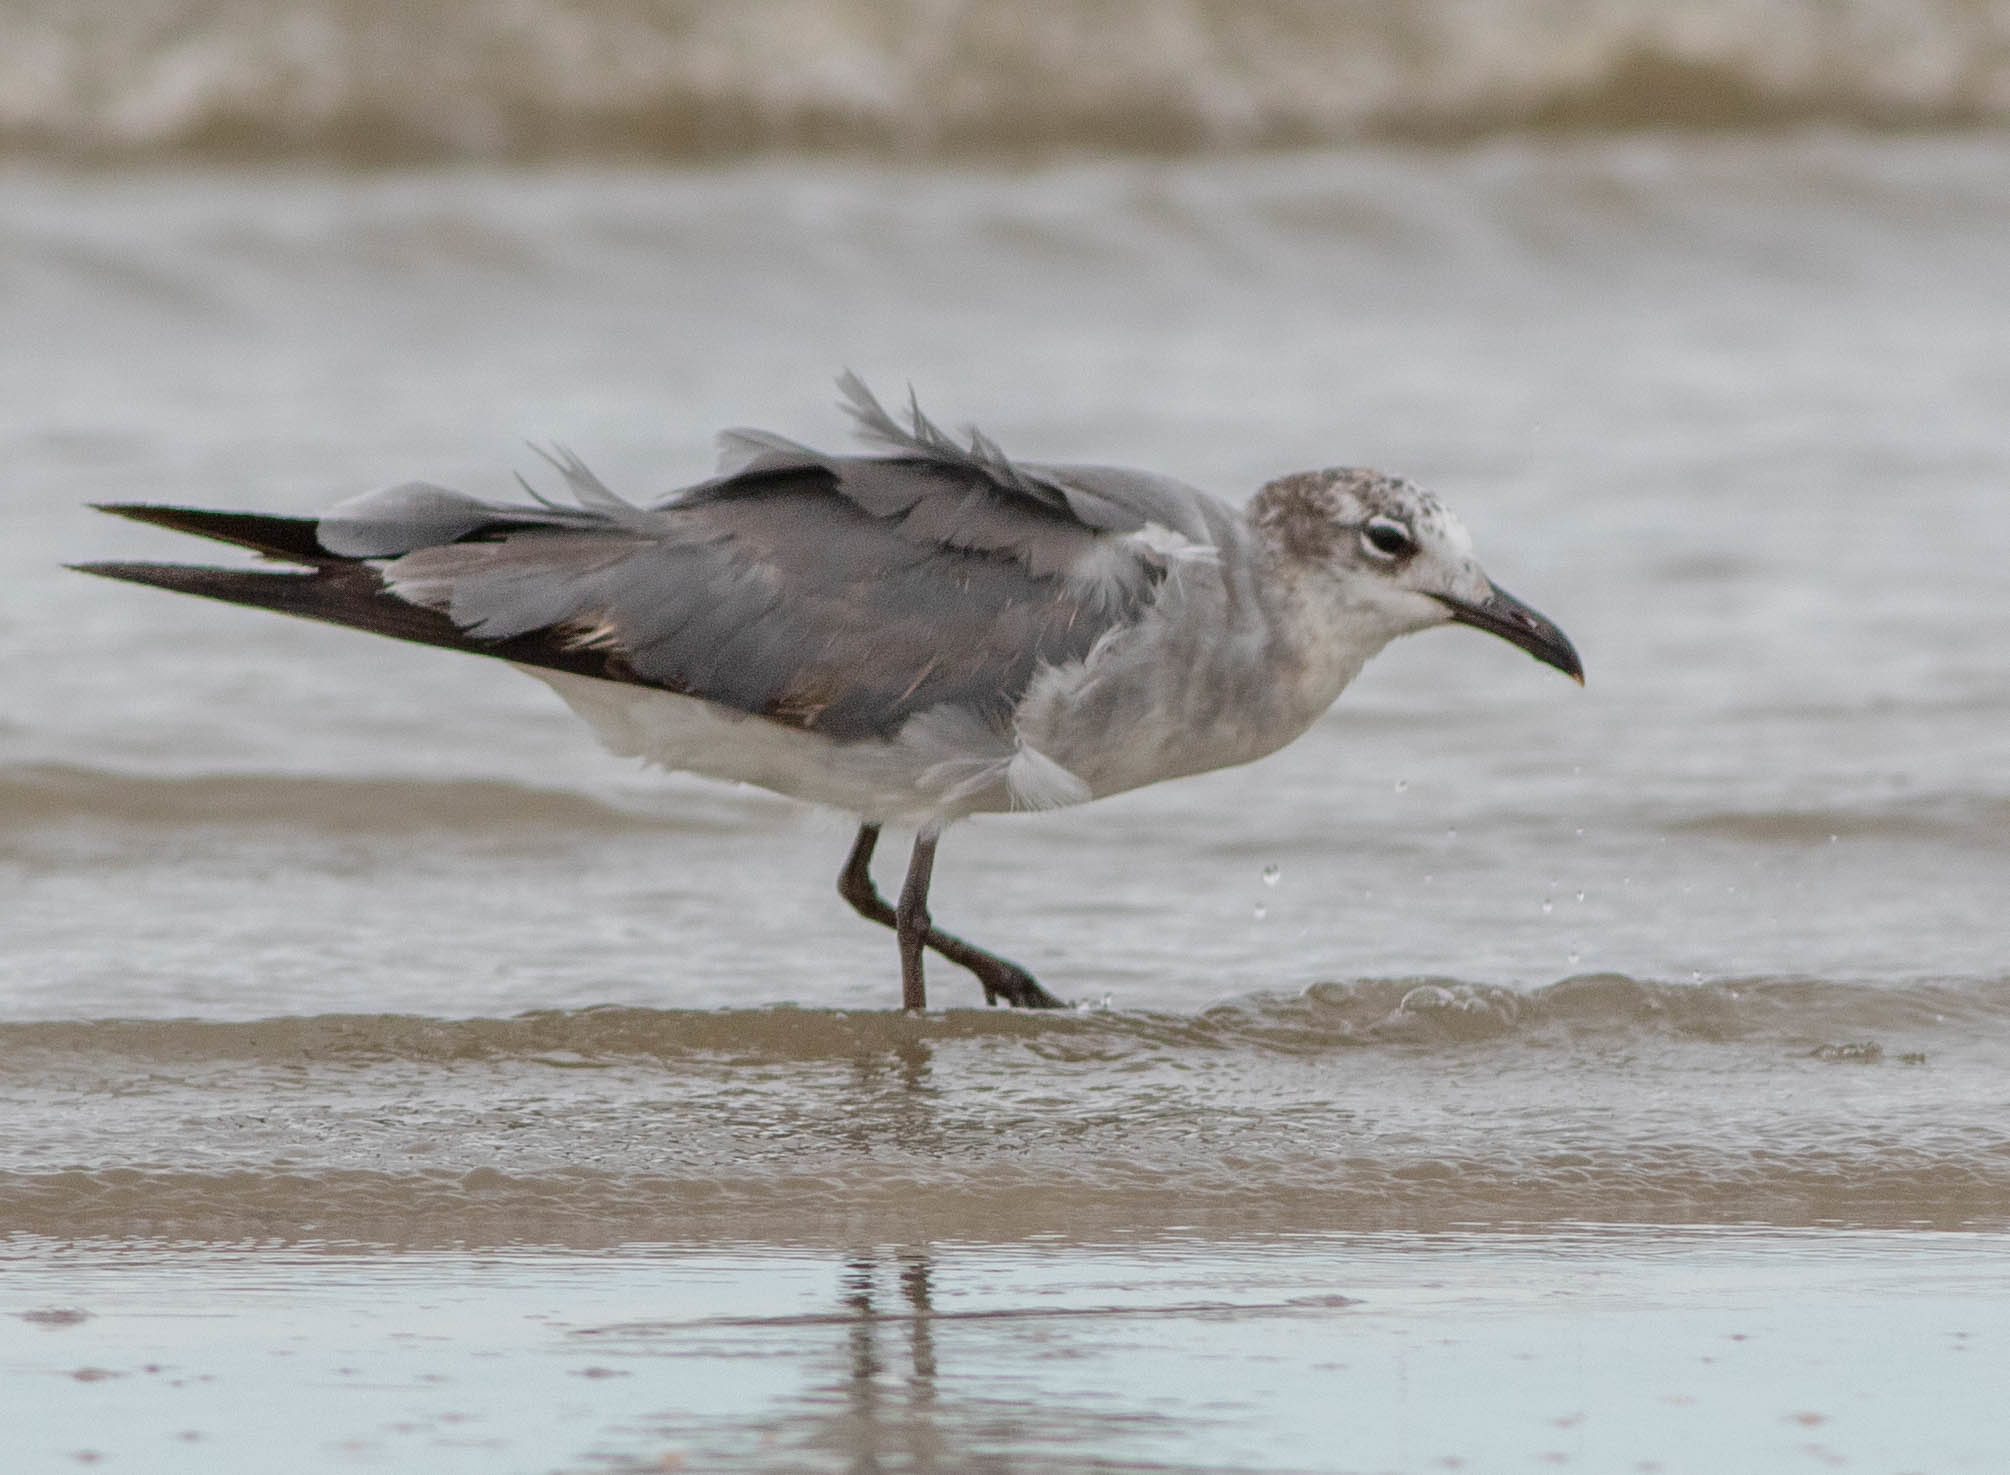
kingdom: Animalia
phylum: Chordata
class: Aves
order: Charadriiformes
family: Laridae
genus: Leucophaeus
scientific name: Leucophaeus atricilla
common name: Laughing gull
